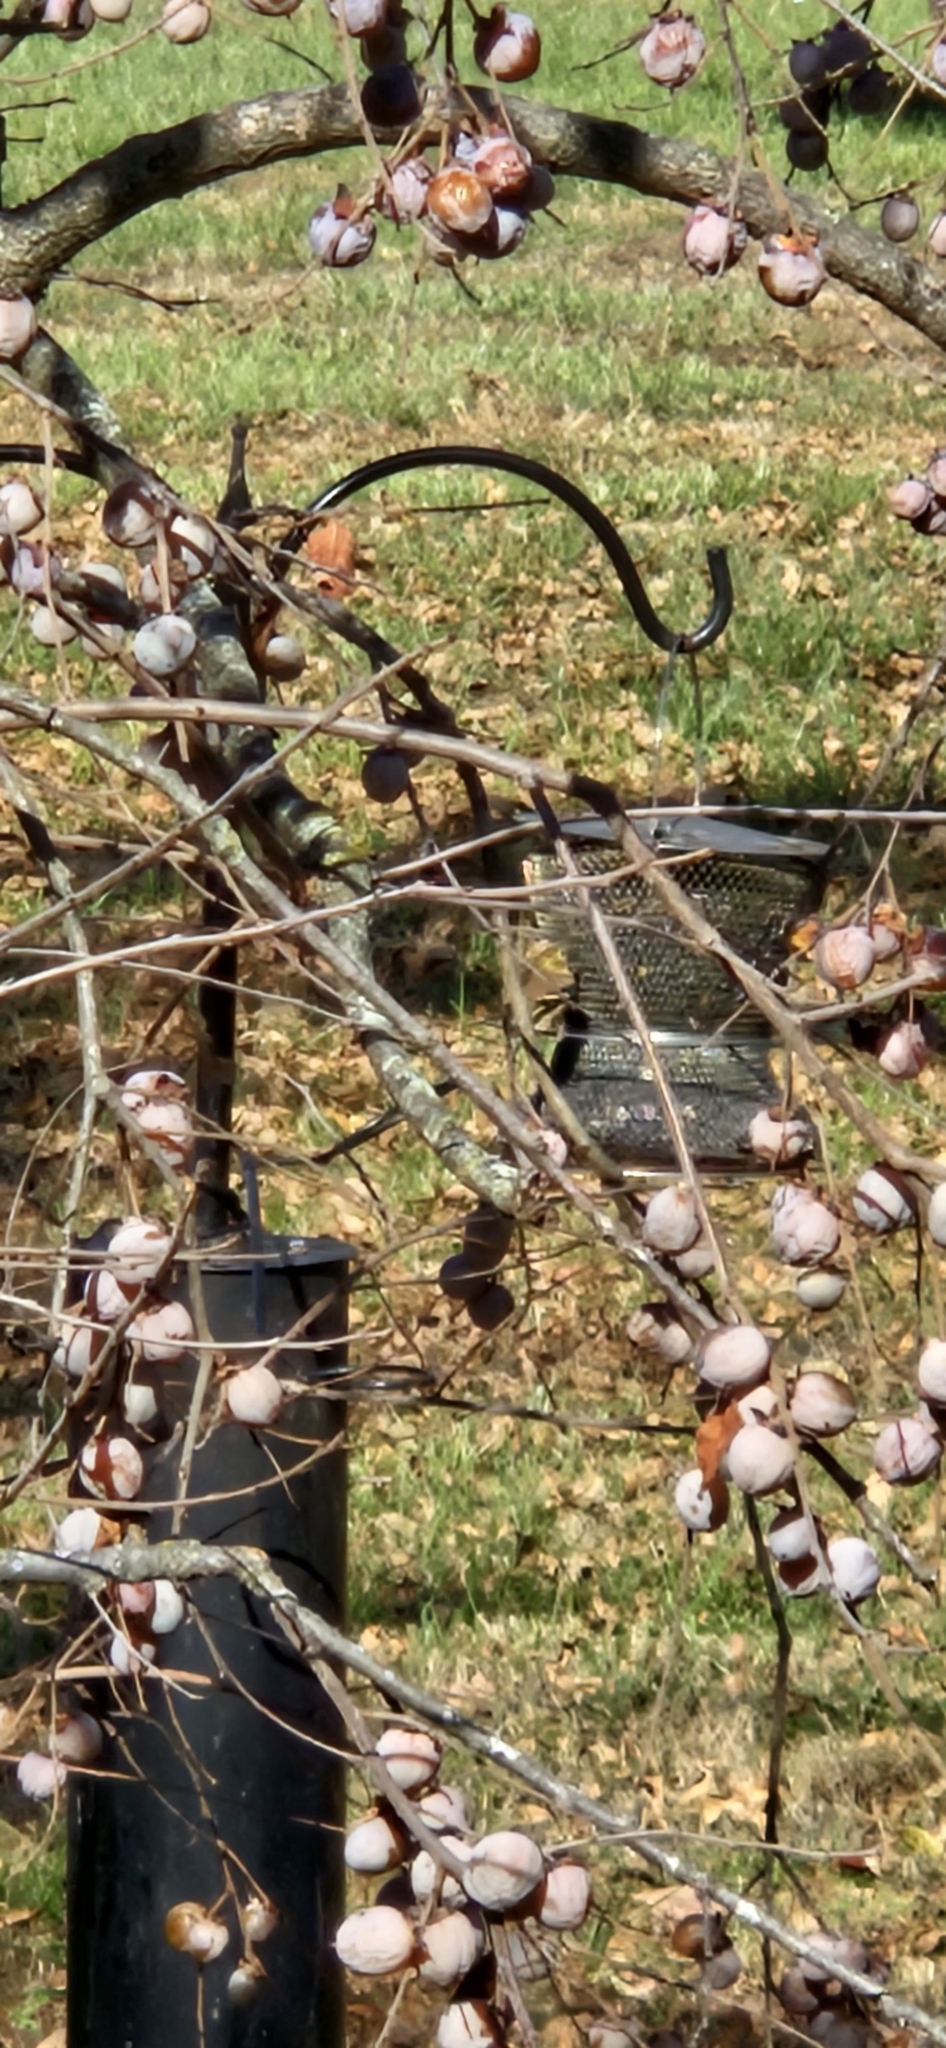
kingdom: Animalia
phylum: Chordata
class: Aves
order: Passeriformes
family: Fringillidae
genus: Spinus
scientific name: Spinus tristis
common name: American goldfinch
